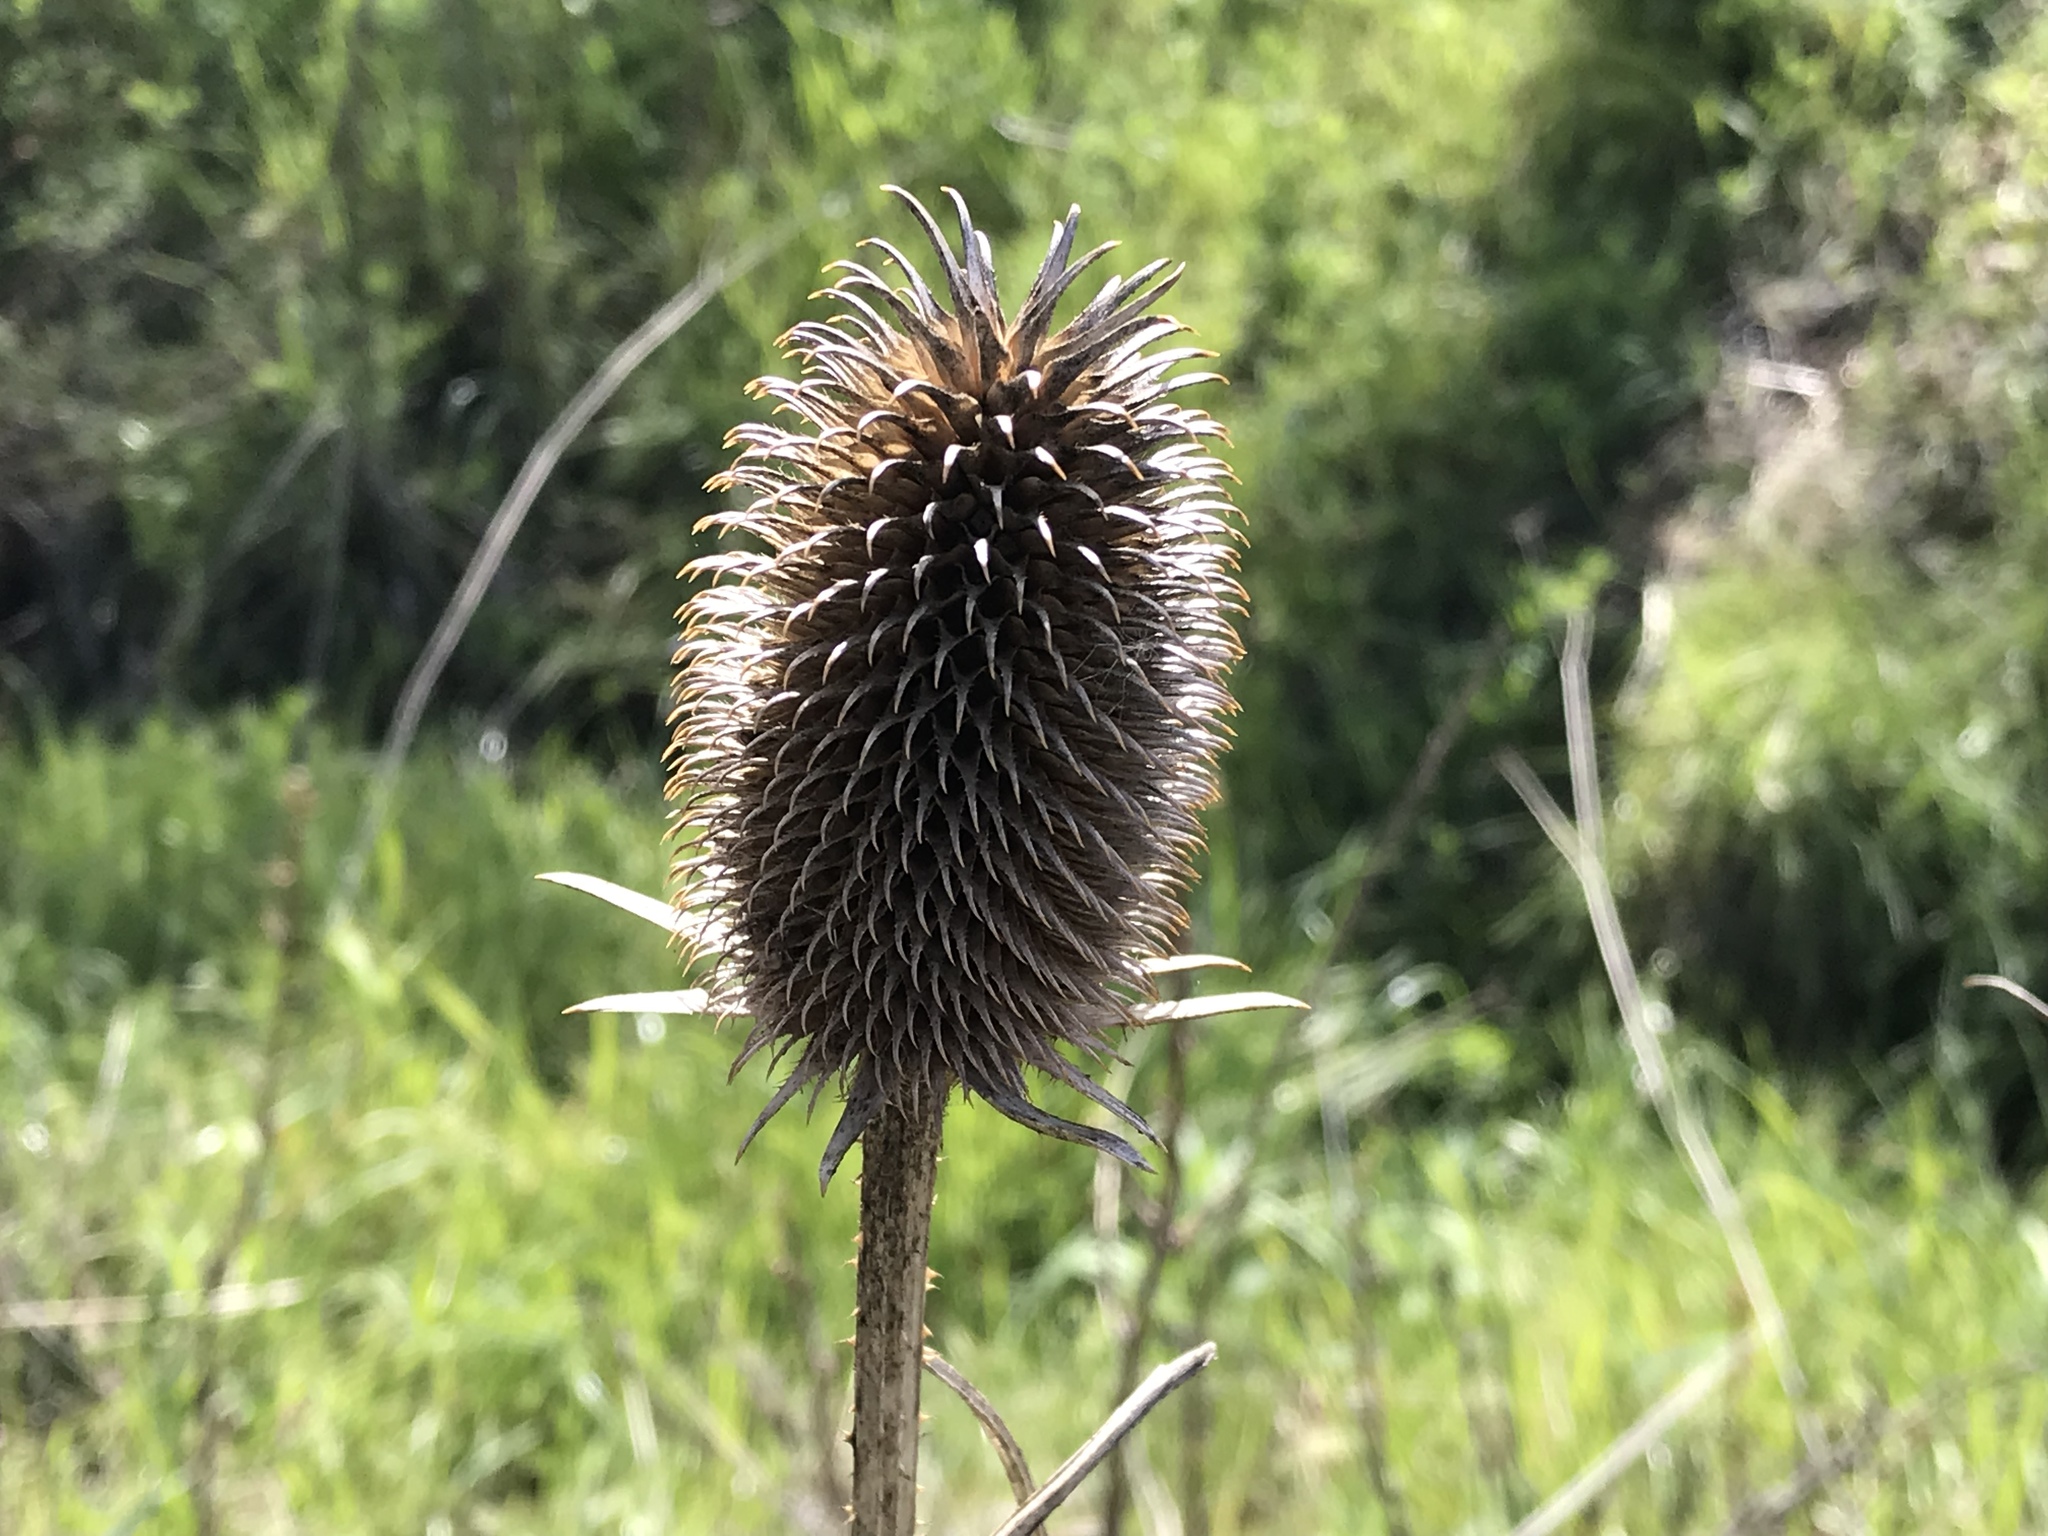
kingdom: Plantae
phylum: Tracheophyta
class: Magnoliopsida
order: Dipsacales
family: Caprifoliaceae
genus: Dipsacus
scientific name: Dipsacus sativus
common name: Fuller's teasel
